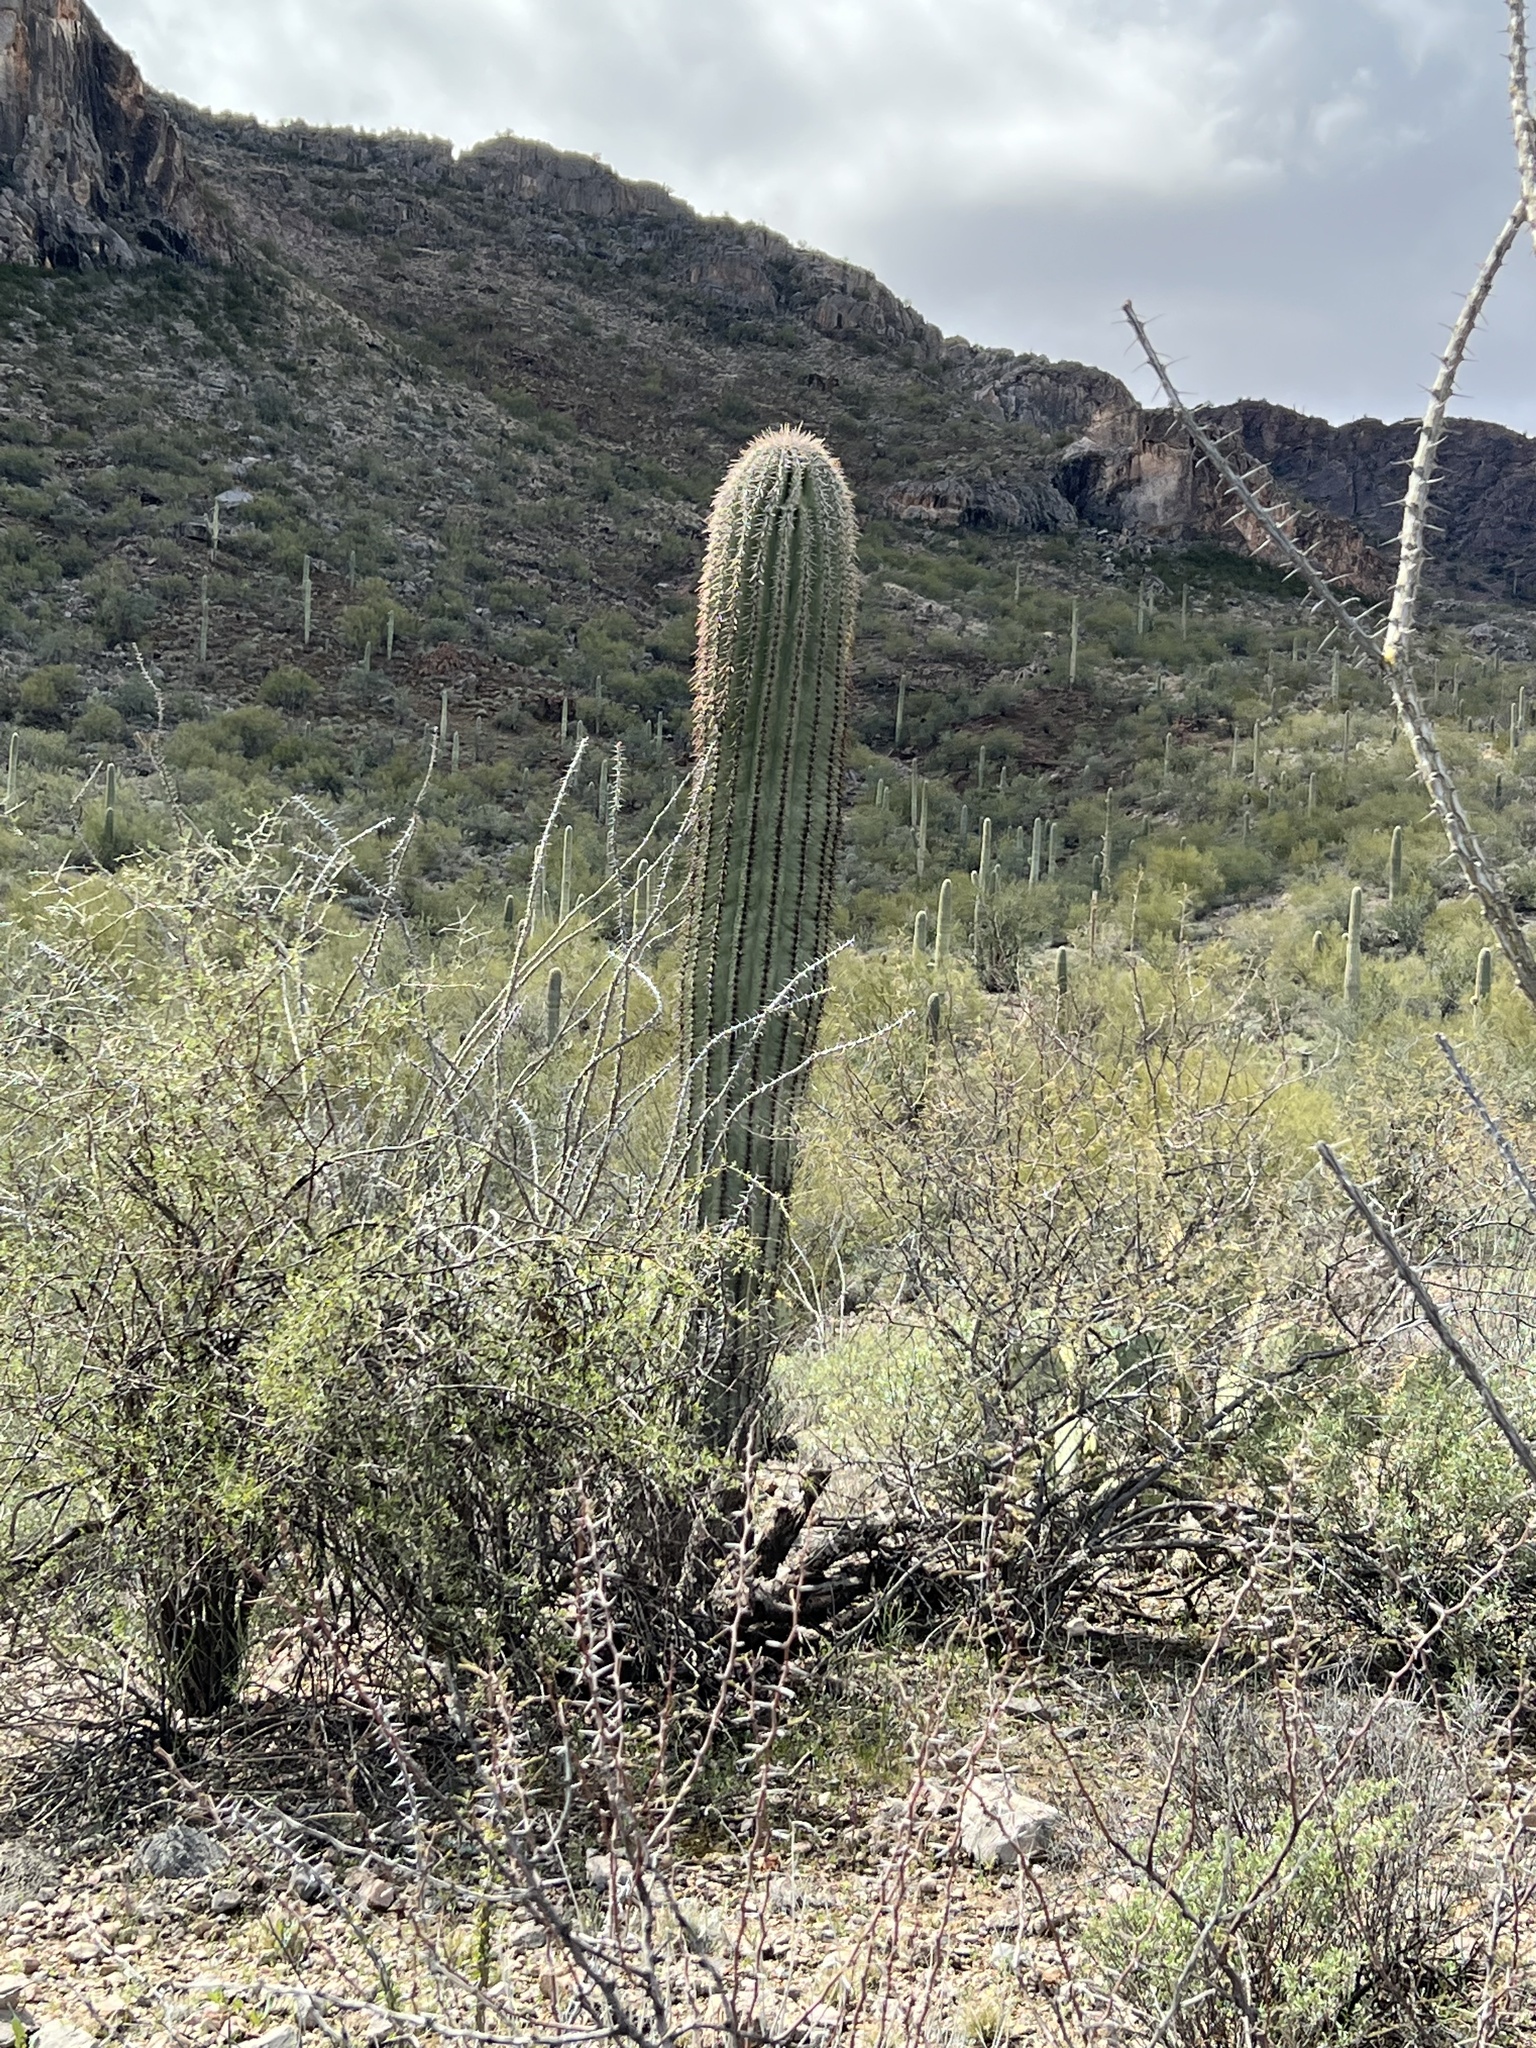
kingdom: Plantae
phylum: Tracheophyta
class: Magnoliopsida
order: Caryophyllales
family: Cactaceae
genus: Carnegiea
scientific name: Carnegiea gigantea
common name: Saguaro
